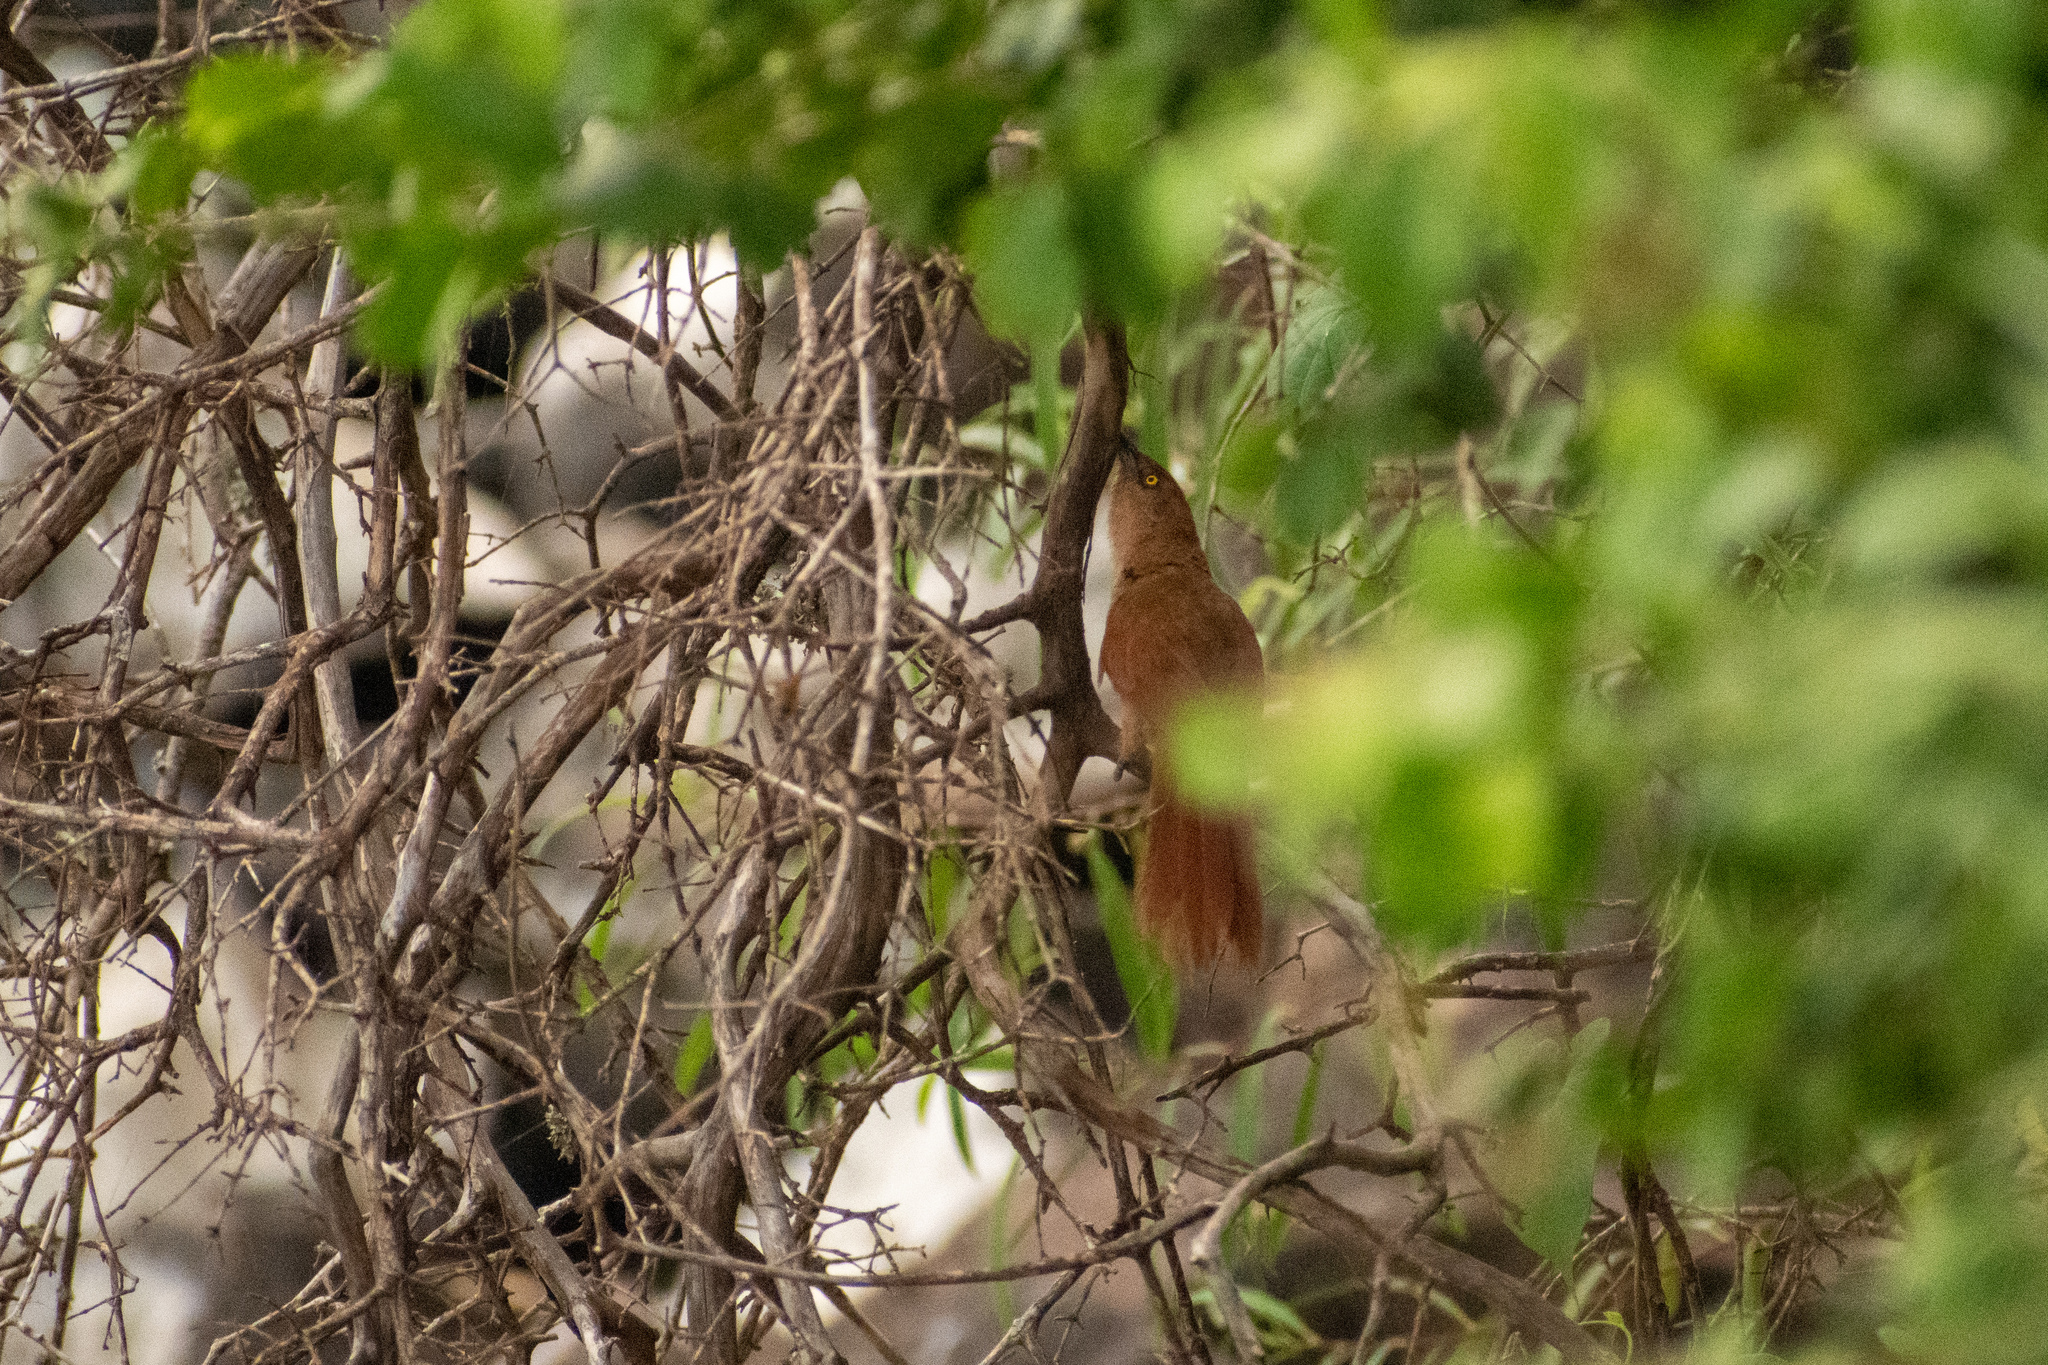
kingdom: Animalia
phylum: Chordata
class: Aves
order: Passeriformes
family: Furnariidae
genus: Phacellodomus
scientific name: Phacellodomus ruber
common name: Greater thornbird
